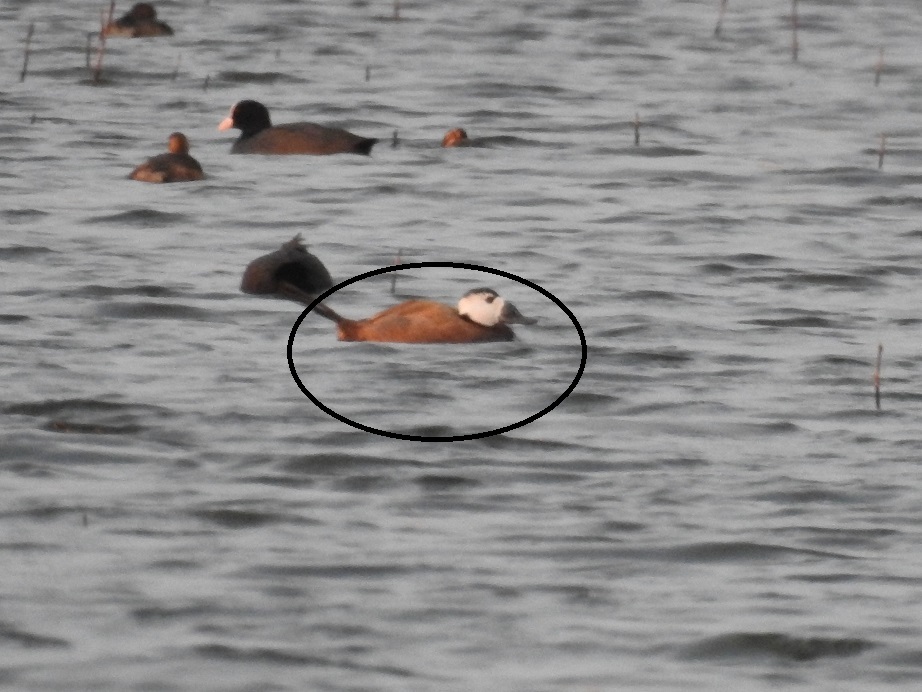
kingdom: Animalia
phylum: Chordata
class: Aves
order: Anseriformes
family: Anatidae
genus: Oxyura
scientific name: Oxyura leucocephala
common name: White-headed duck
